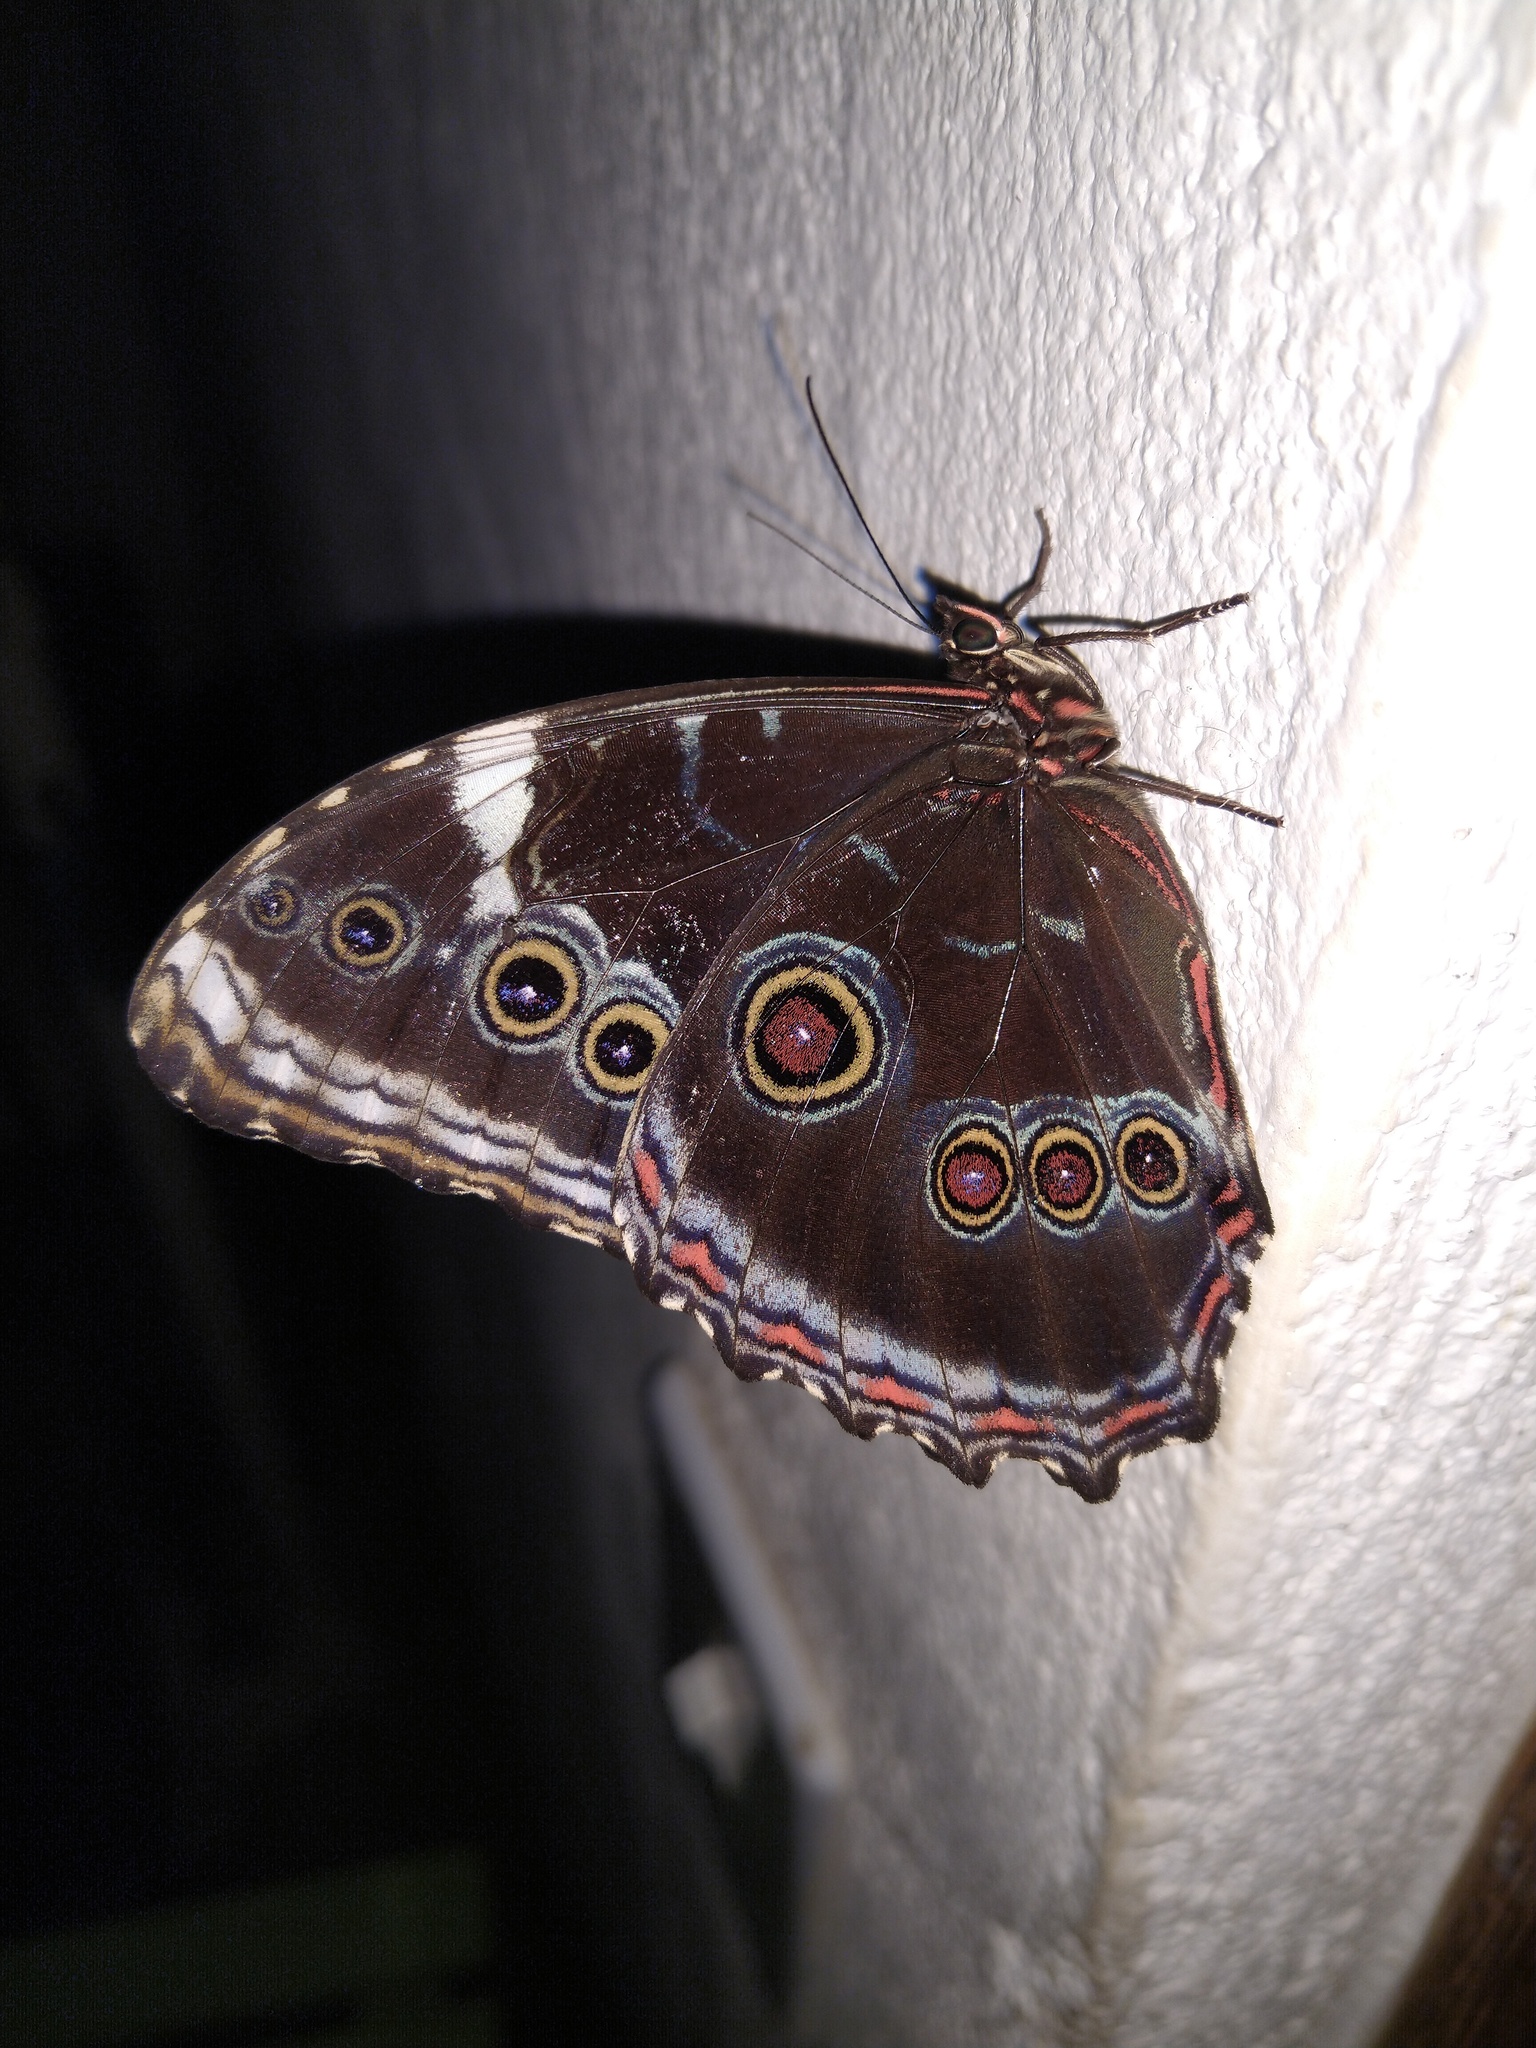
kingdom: Animalia
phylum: Arthropoda
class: Insecta
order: Lepidoptera
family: Nymphalidae
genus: Morpho
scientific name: Morpho helenor
